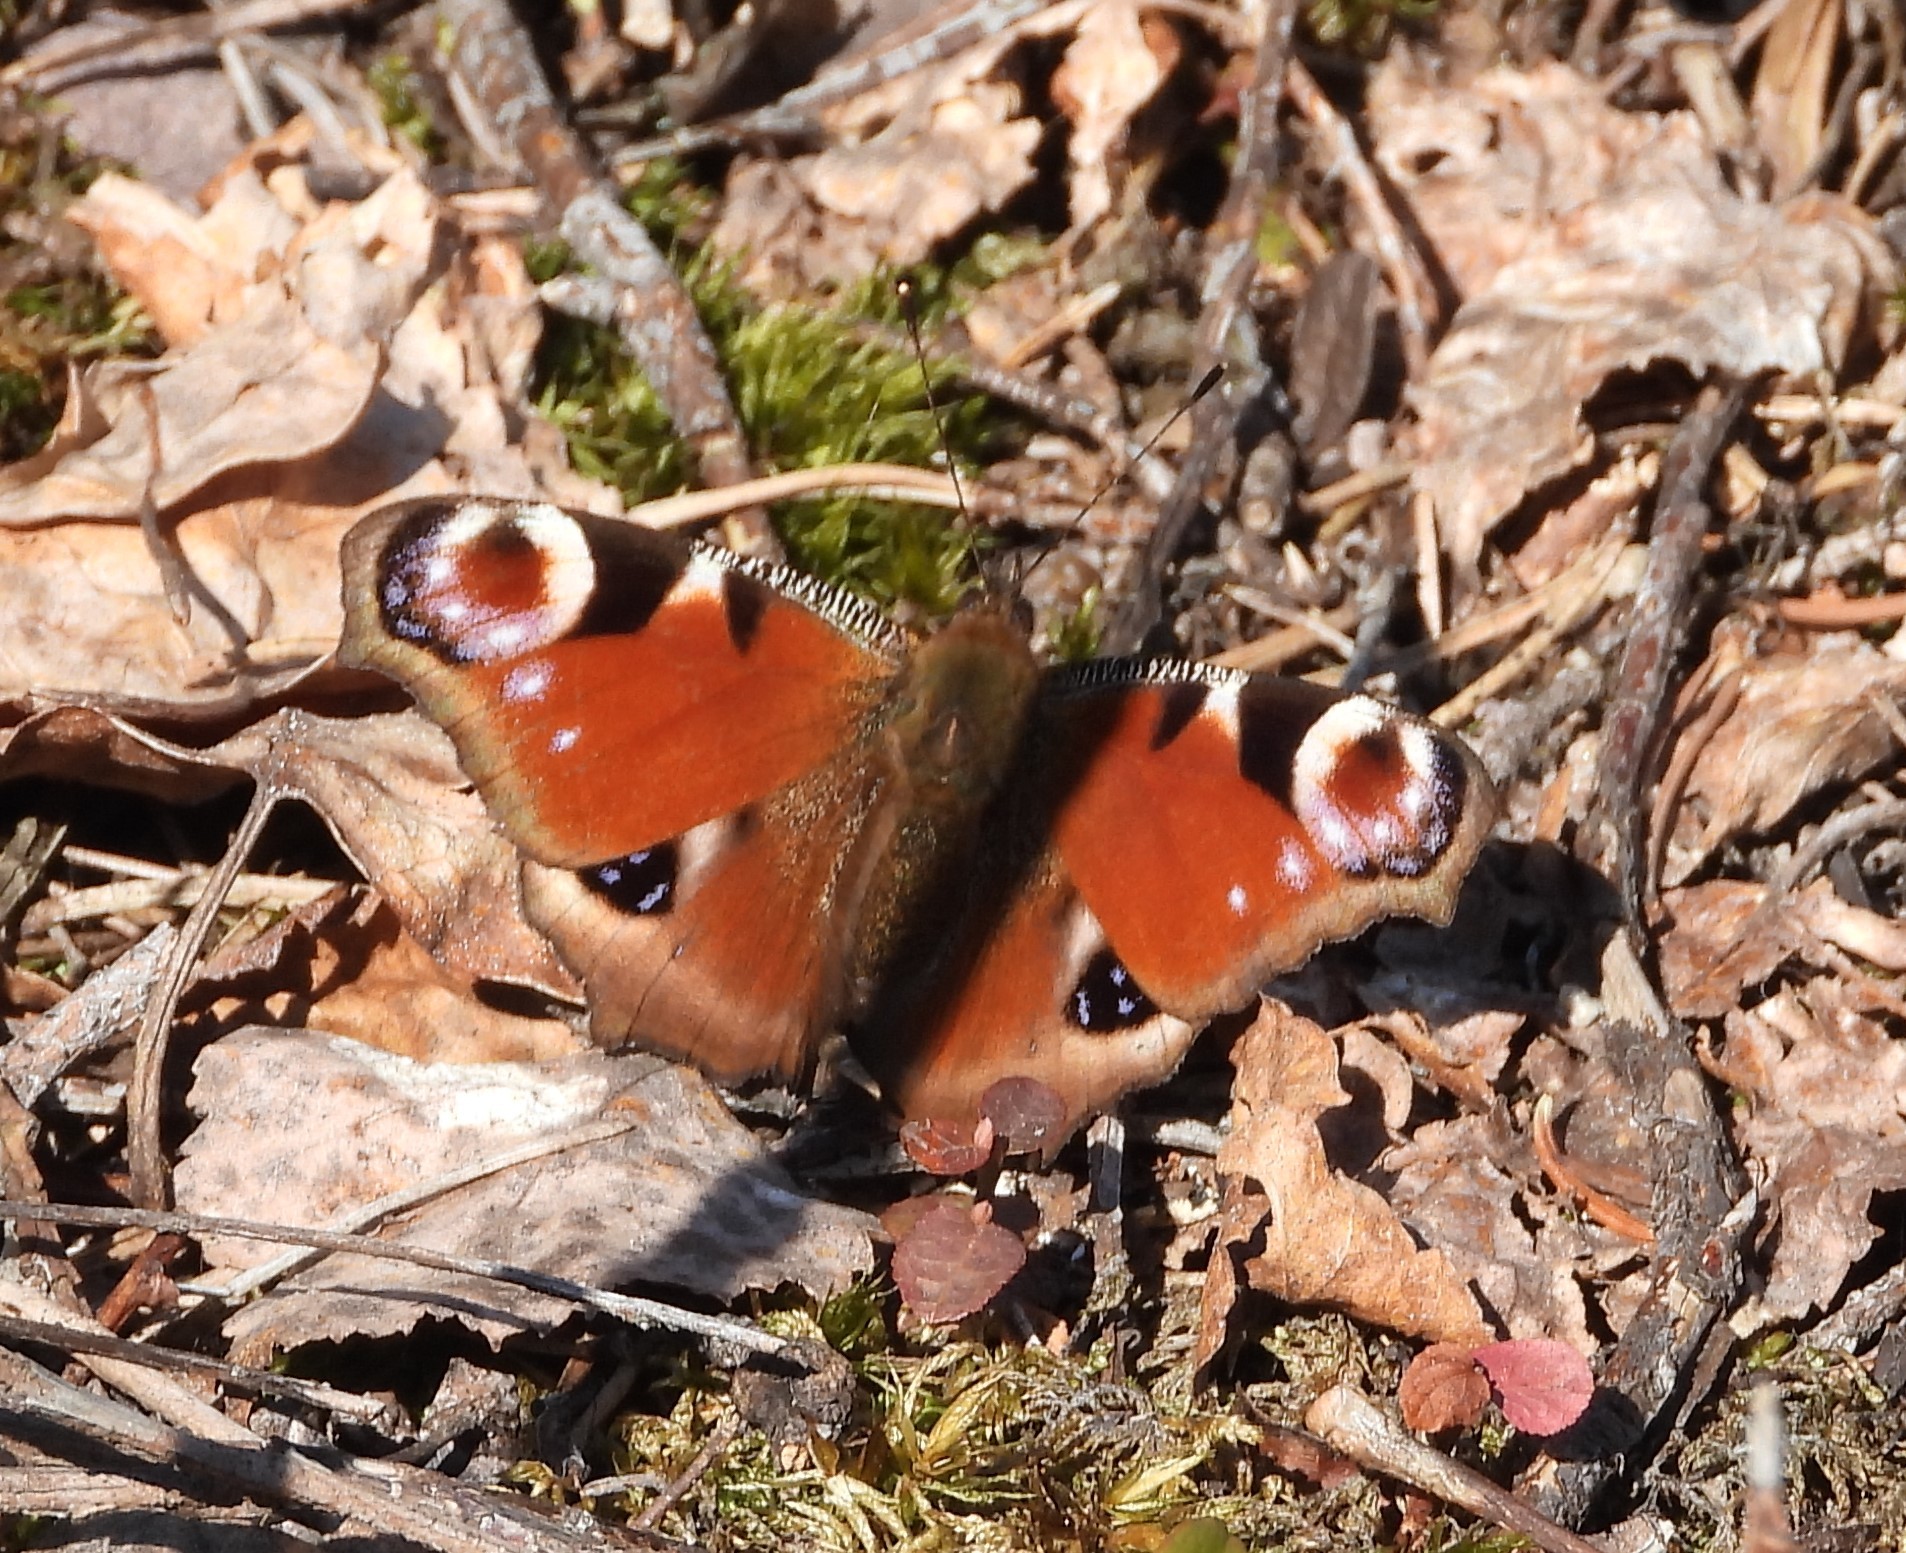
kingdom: Animalia
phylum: Arthropoda
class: Insecta
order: Lepidoptera
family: Nymphalidae
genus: Aglais
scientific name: Aglais io
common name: Peacock
